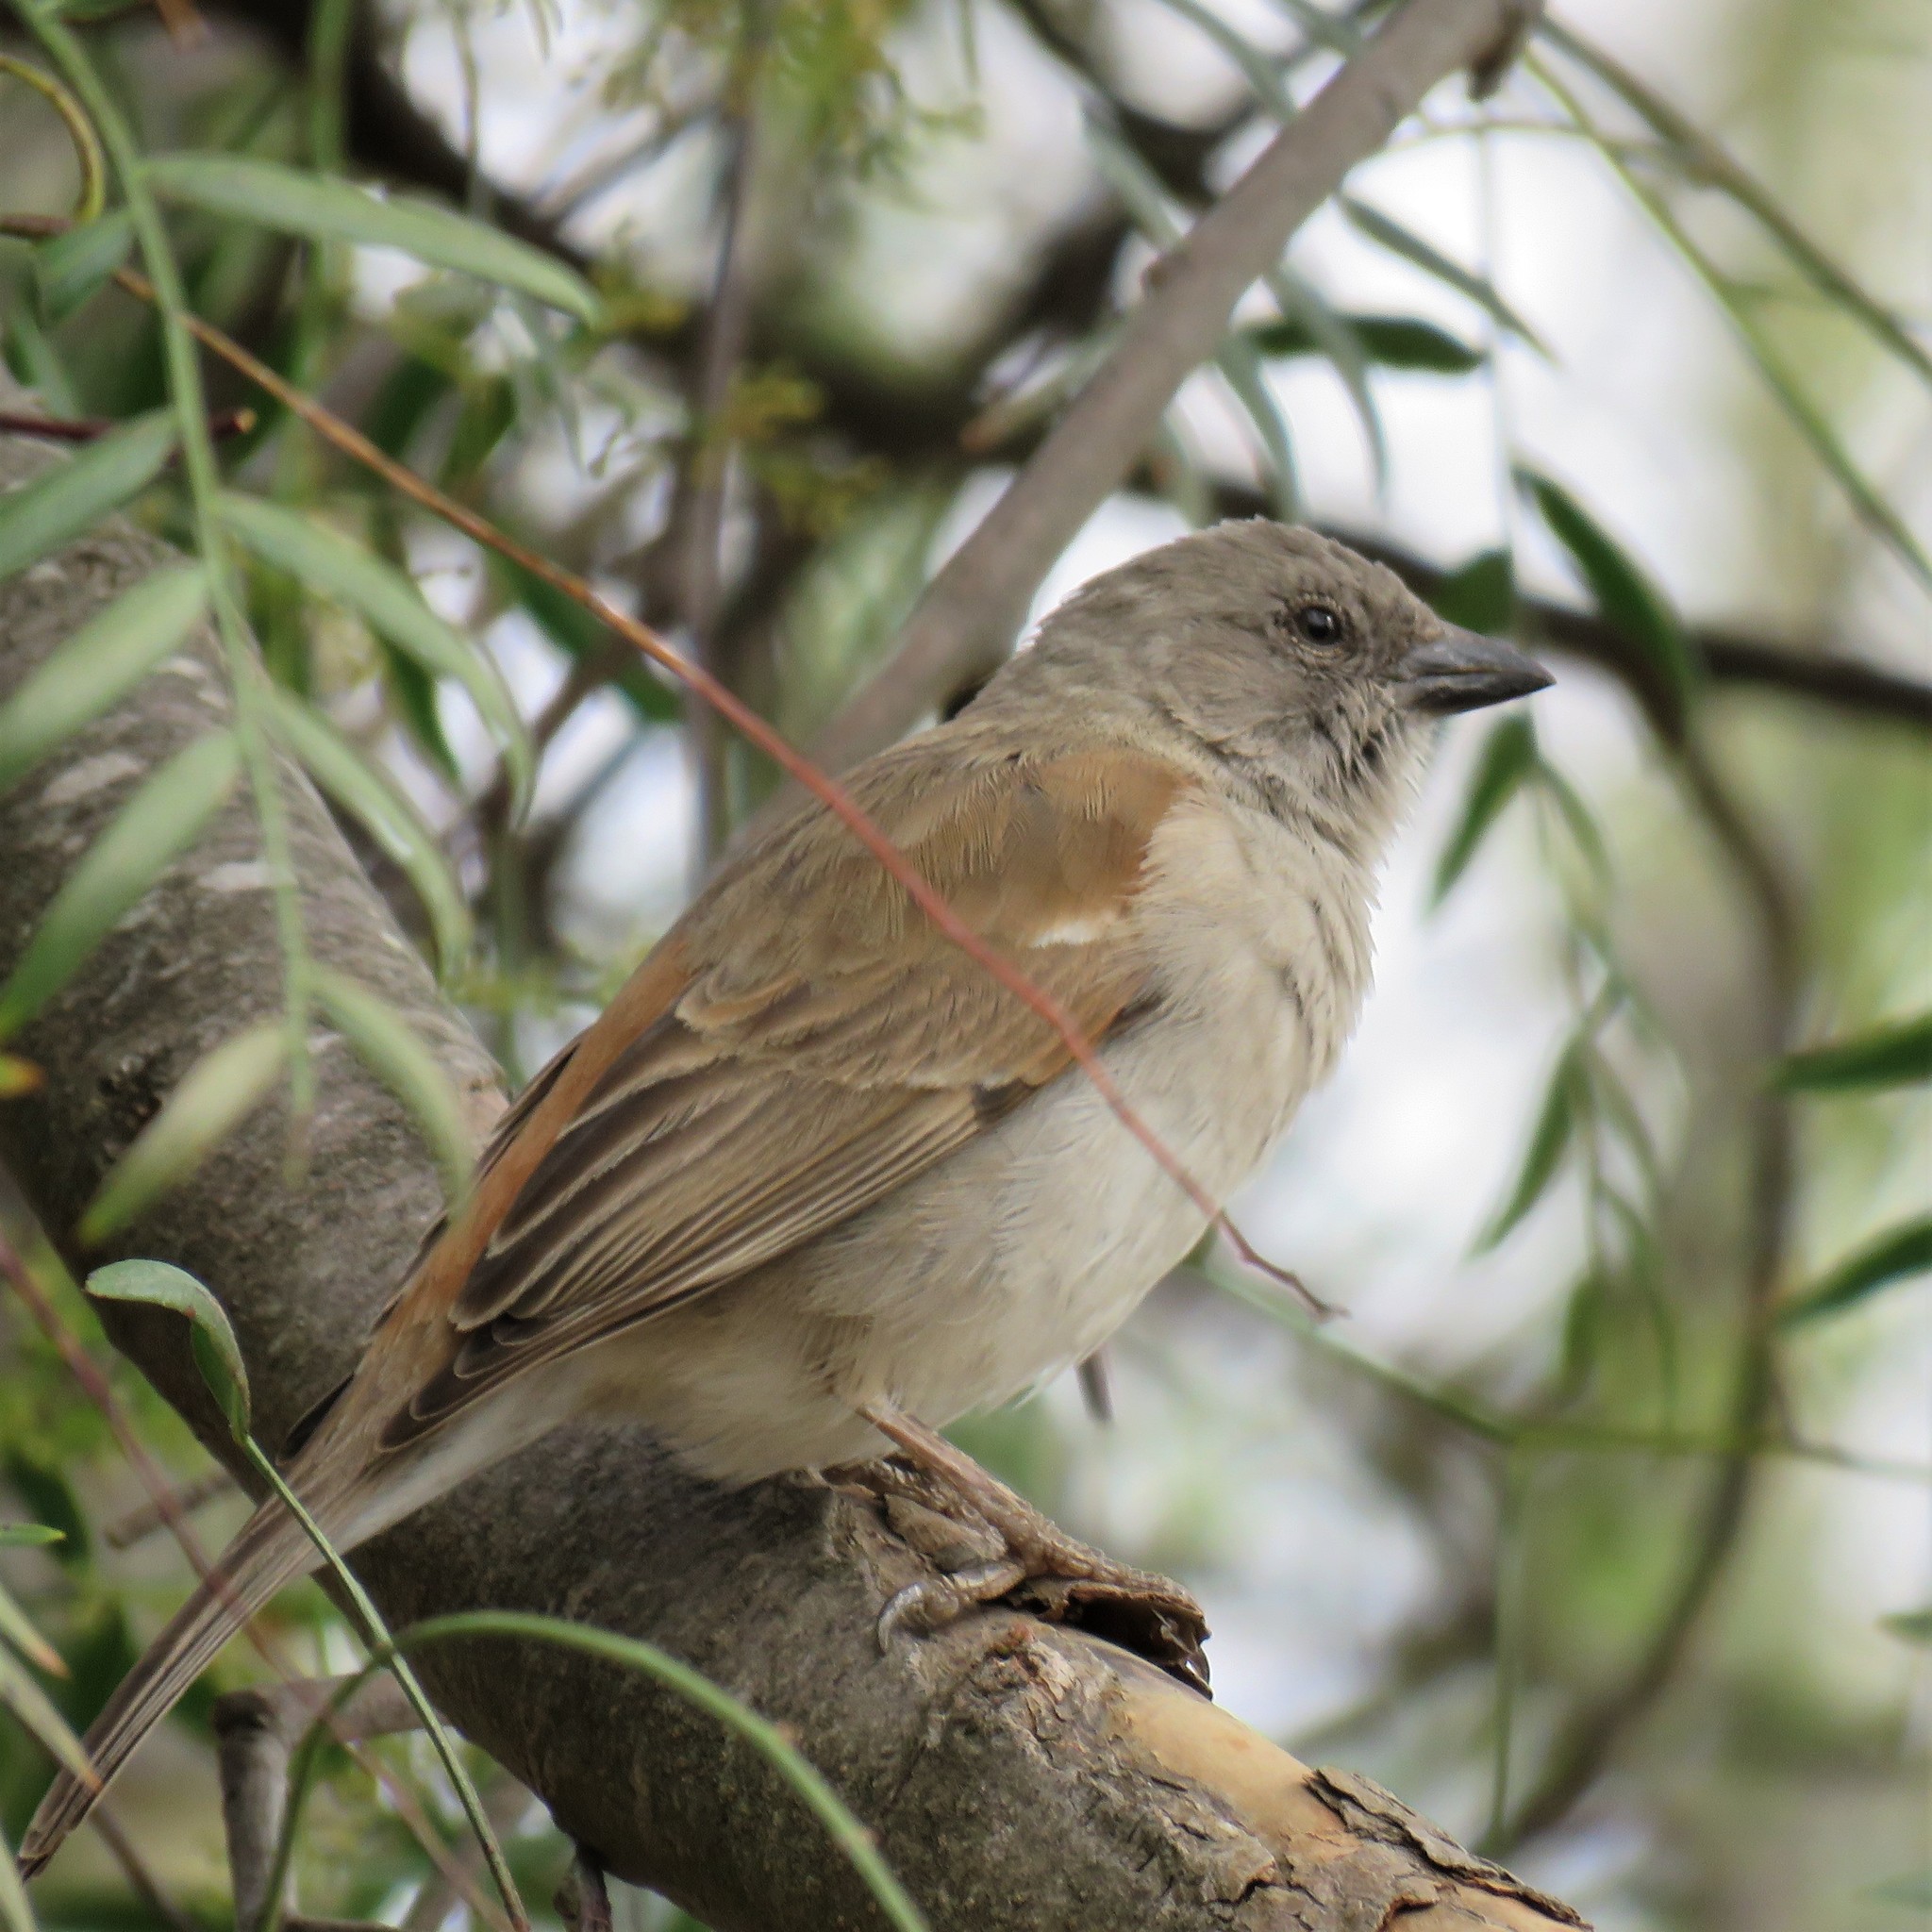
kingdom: Animalia
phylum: Chordata
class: Aves
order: Passeriformes
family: Passeridae
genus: Passer
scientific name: Passer diffusus
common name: Southern grey-headed sparrow
